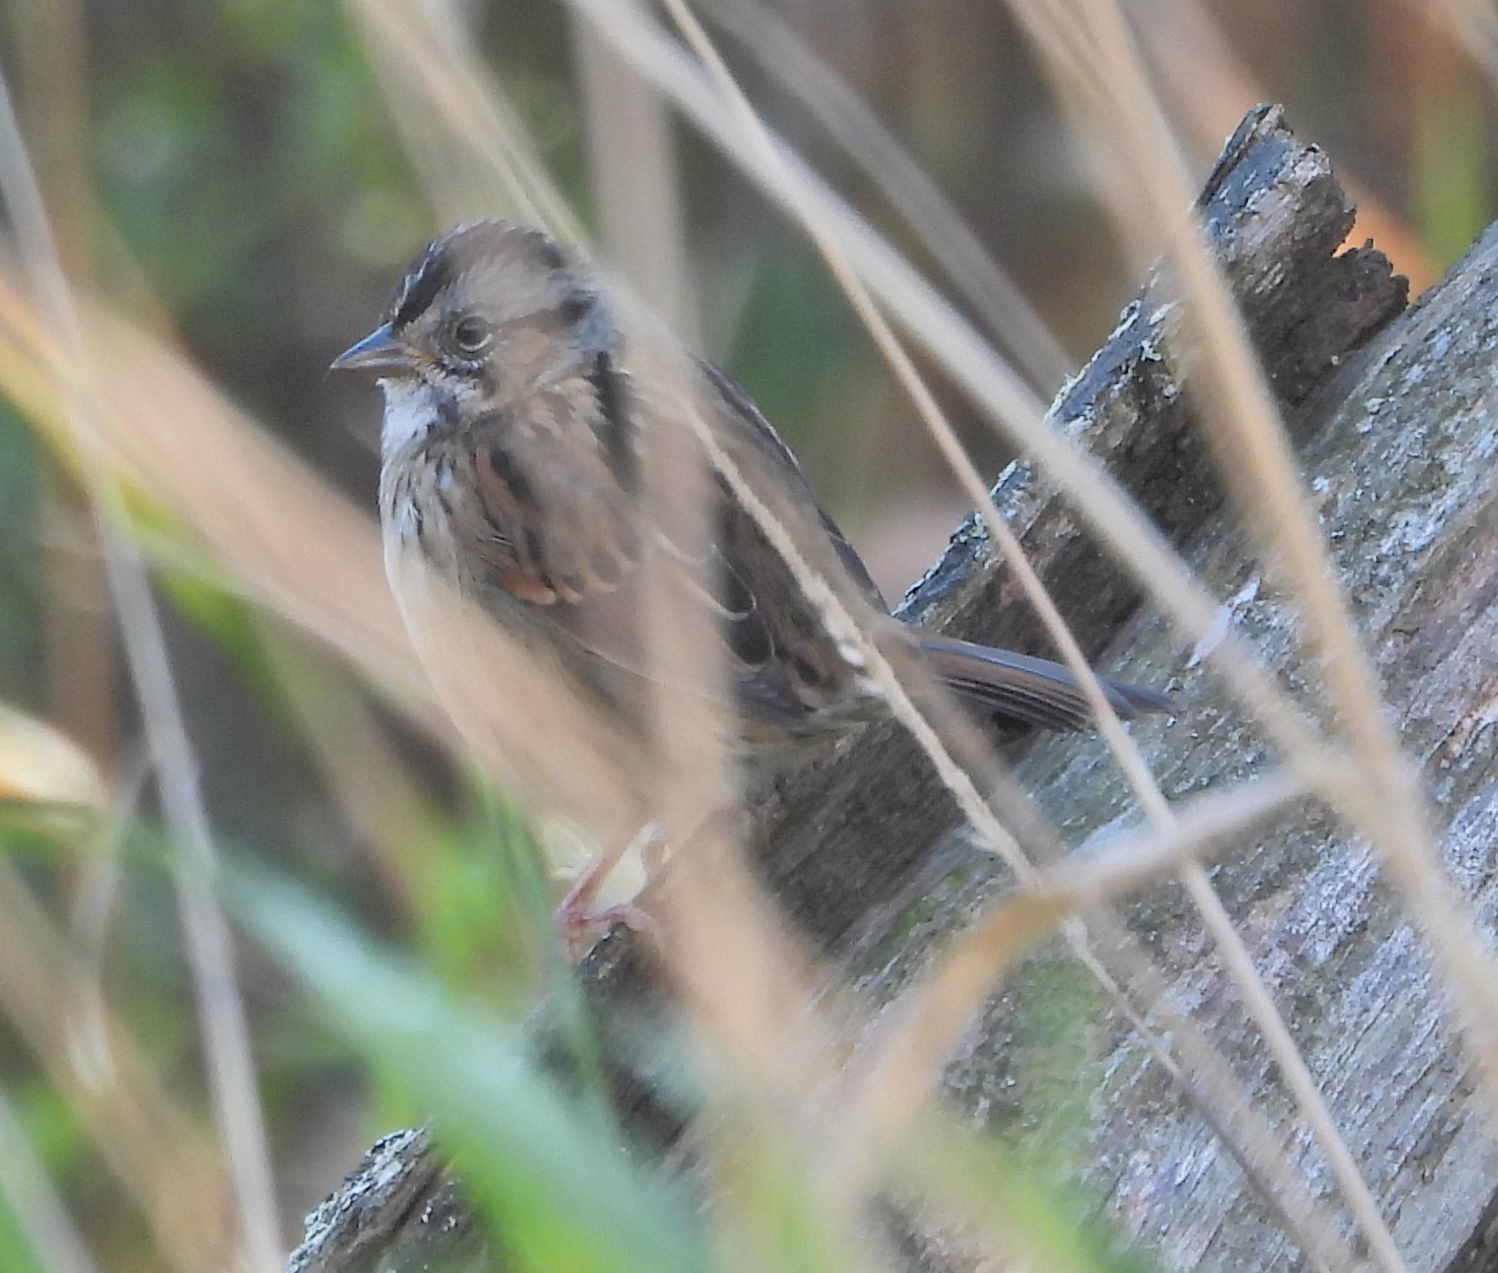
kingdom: Animalia
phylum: Chordata
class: Aves
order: Passeriformes
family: Passerellidae
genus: Melospiza
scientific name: Melospiza georgiana
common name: Swamp sparrow
